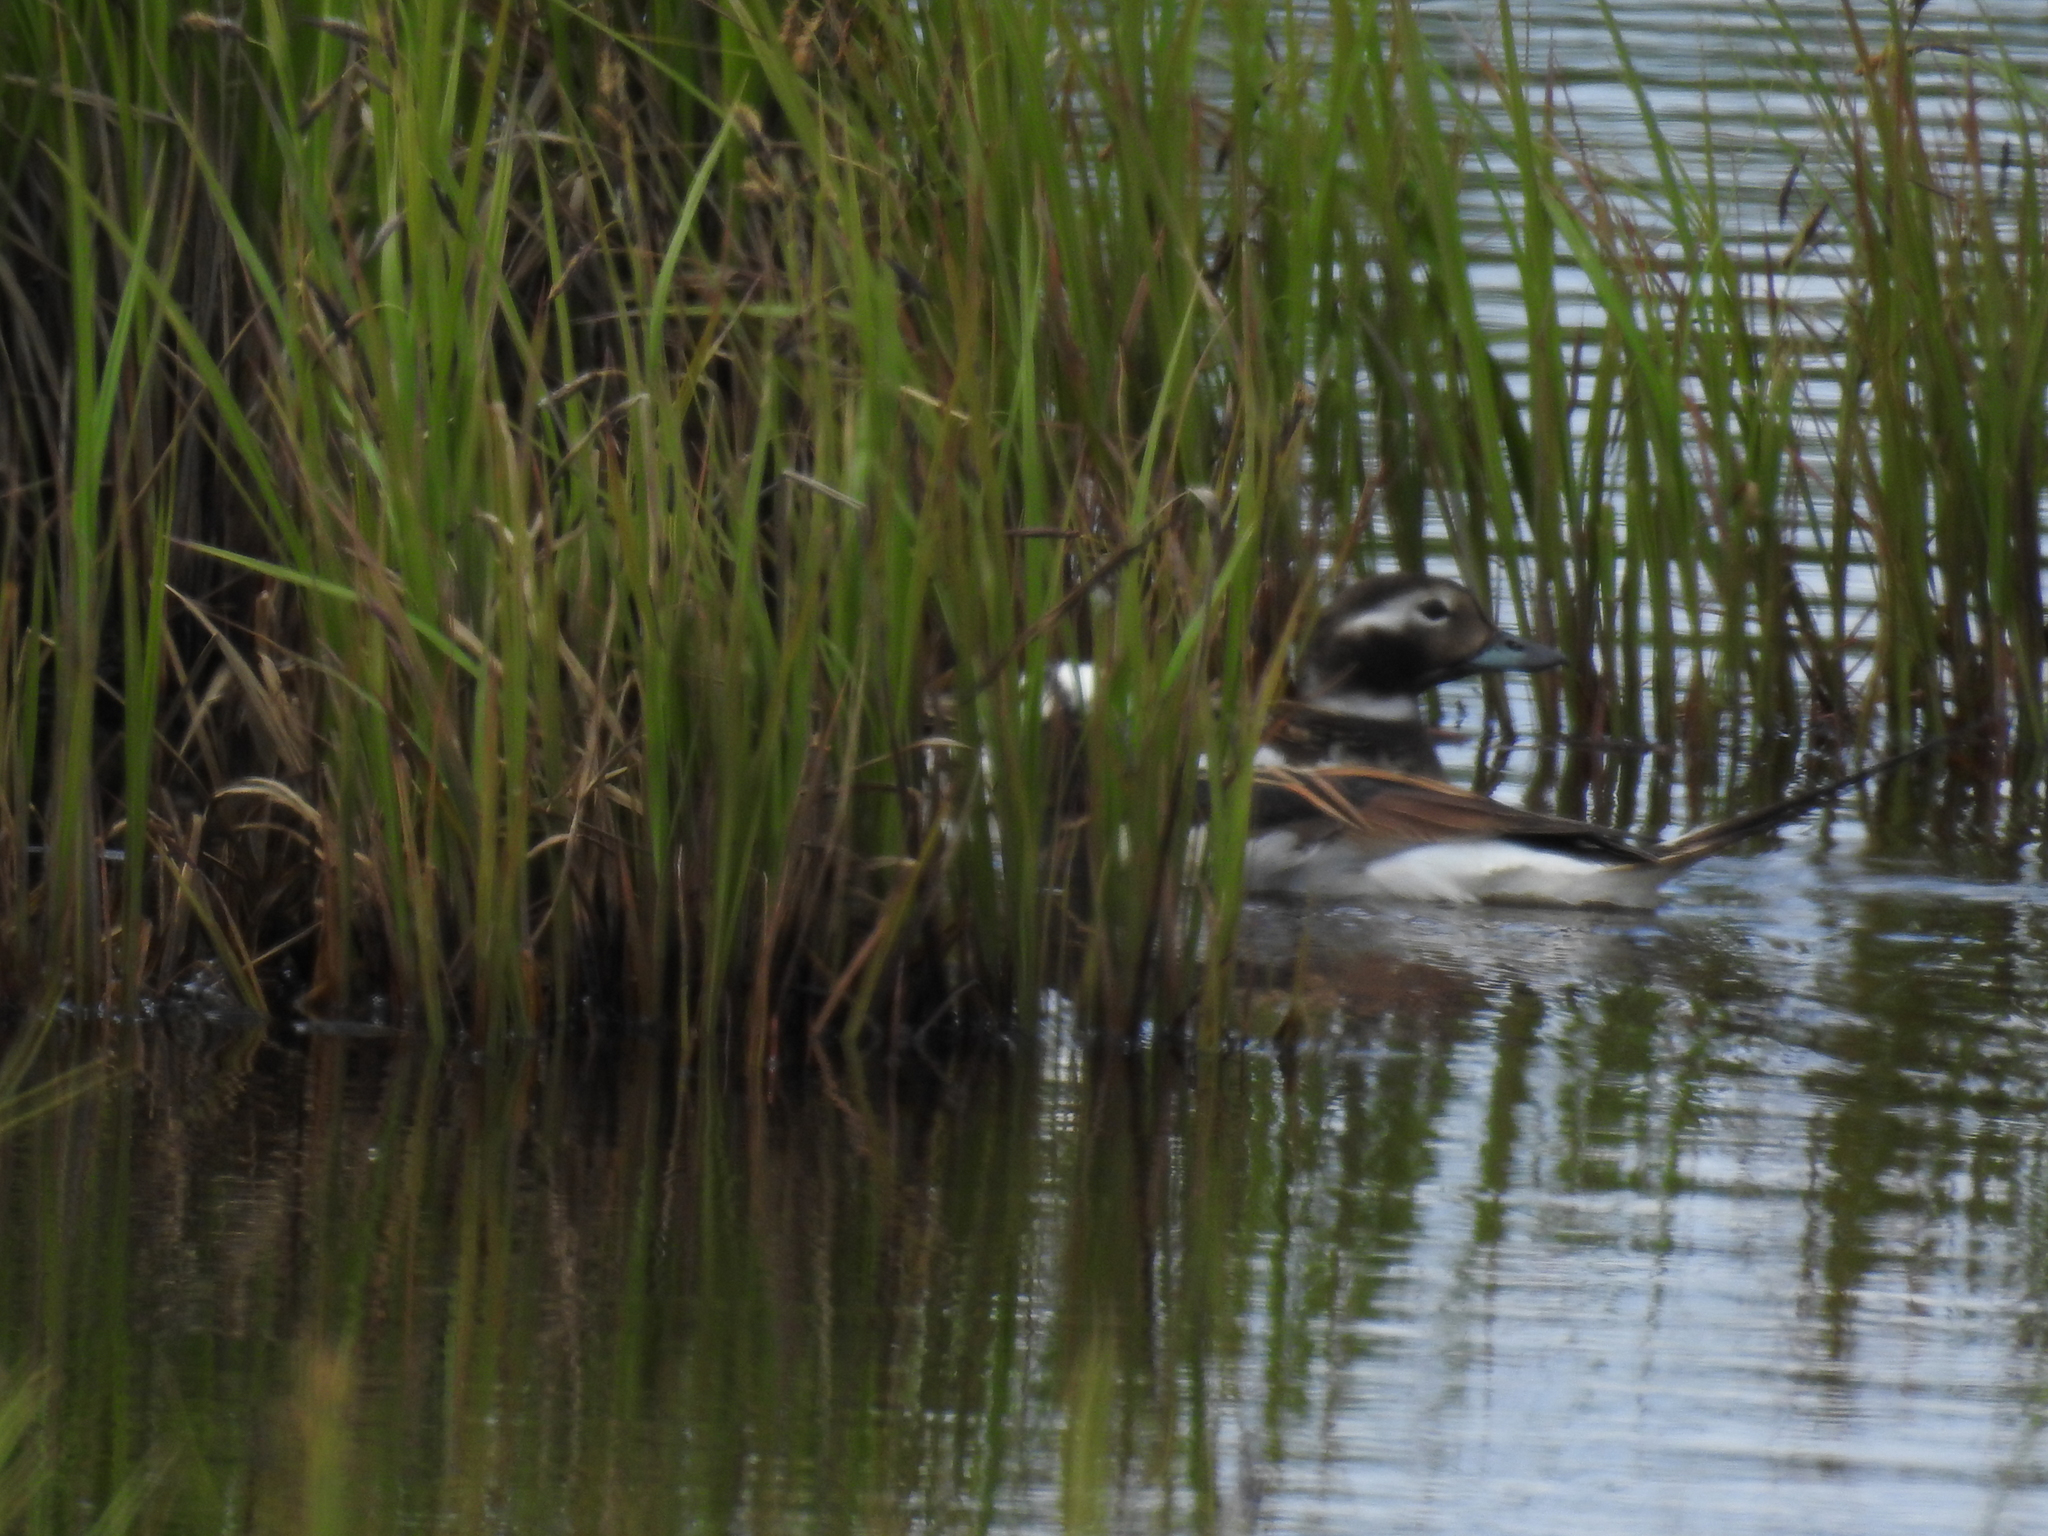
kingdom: Animalia
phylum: Chordata
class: Aves
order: Anseriformes
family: Anatidae
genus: Clangula
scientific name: Clangula hyemalis
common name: Long-tailed duck
